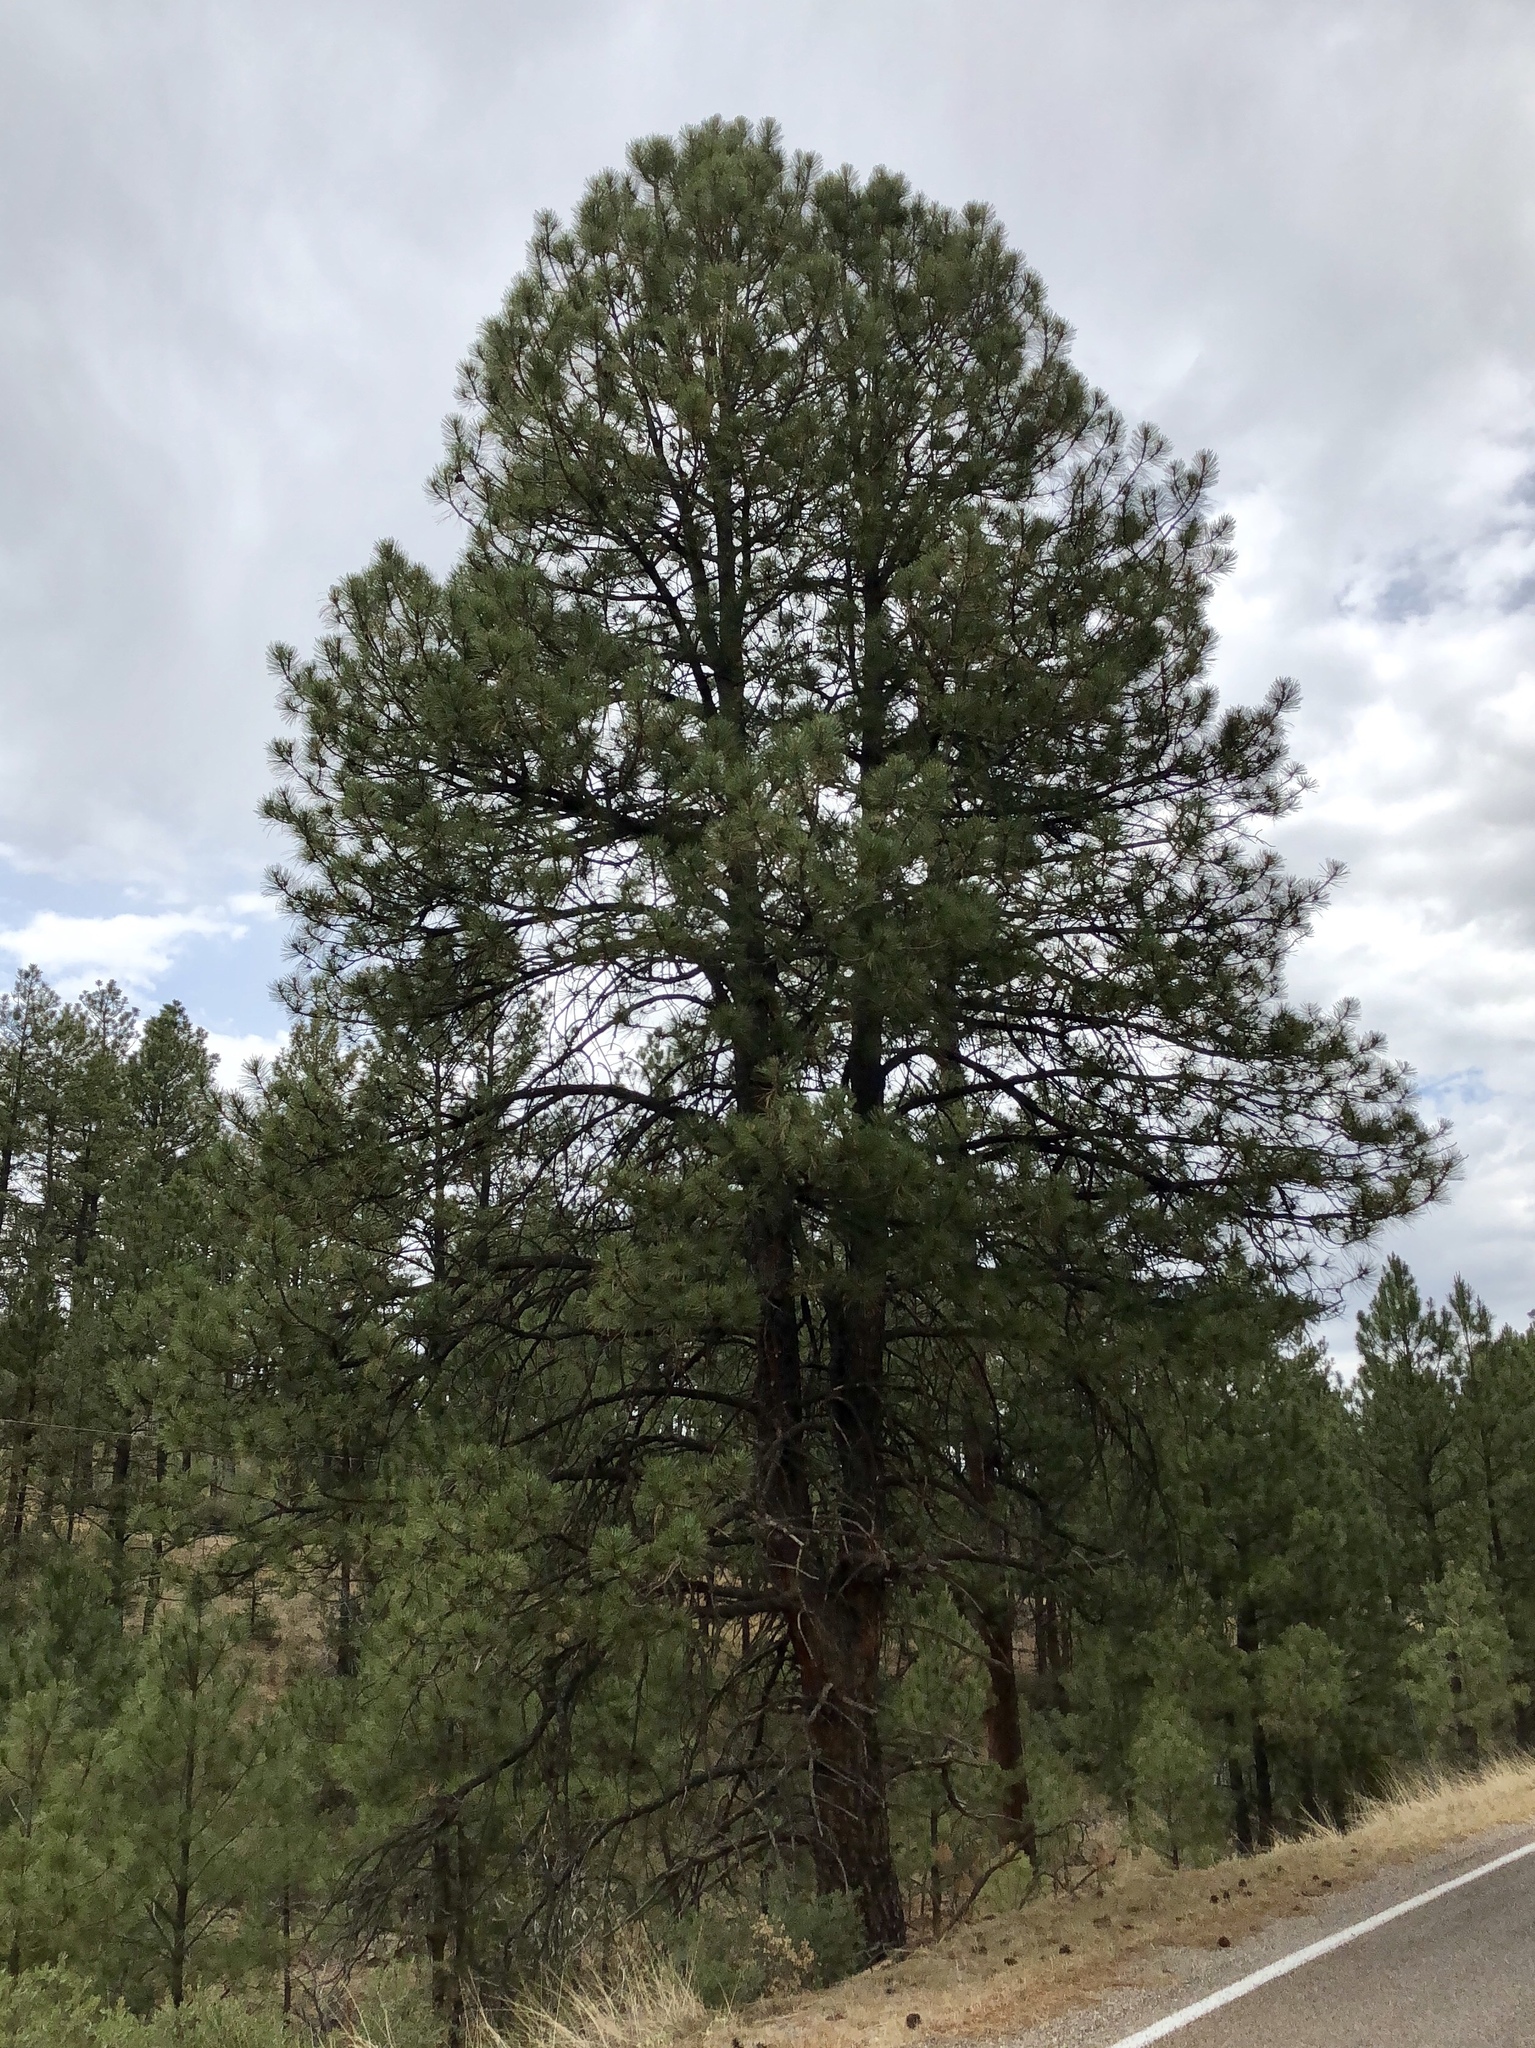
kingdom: Plantae
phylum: Tracheophyta
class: Pinopsida
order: Pinales
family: Pinaceae
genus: Pinus
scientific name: Pinus ponderosa
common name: Western yellow-pine
